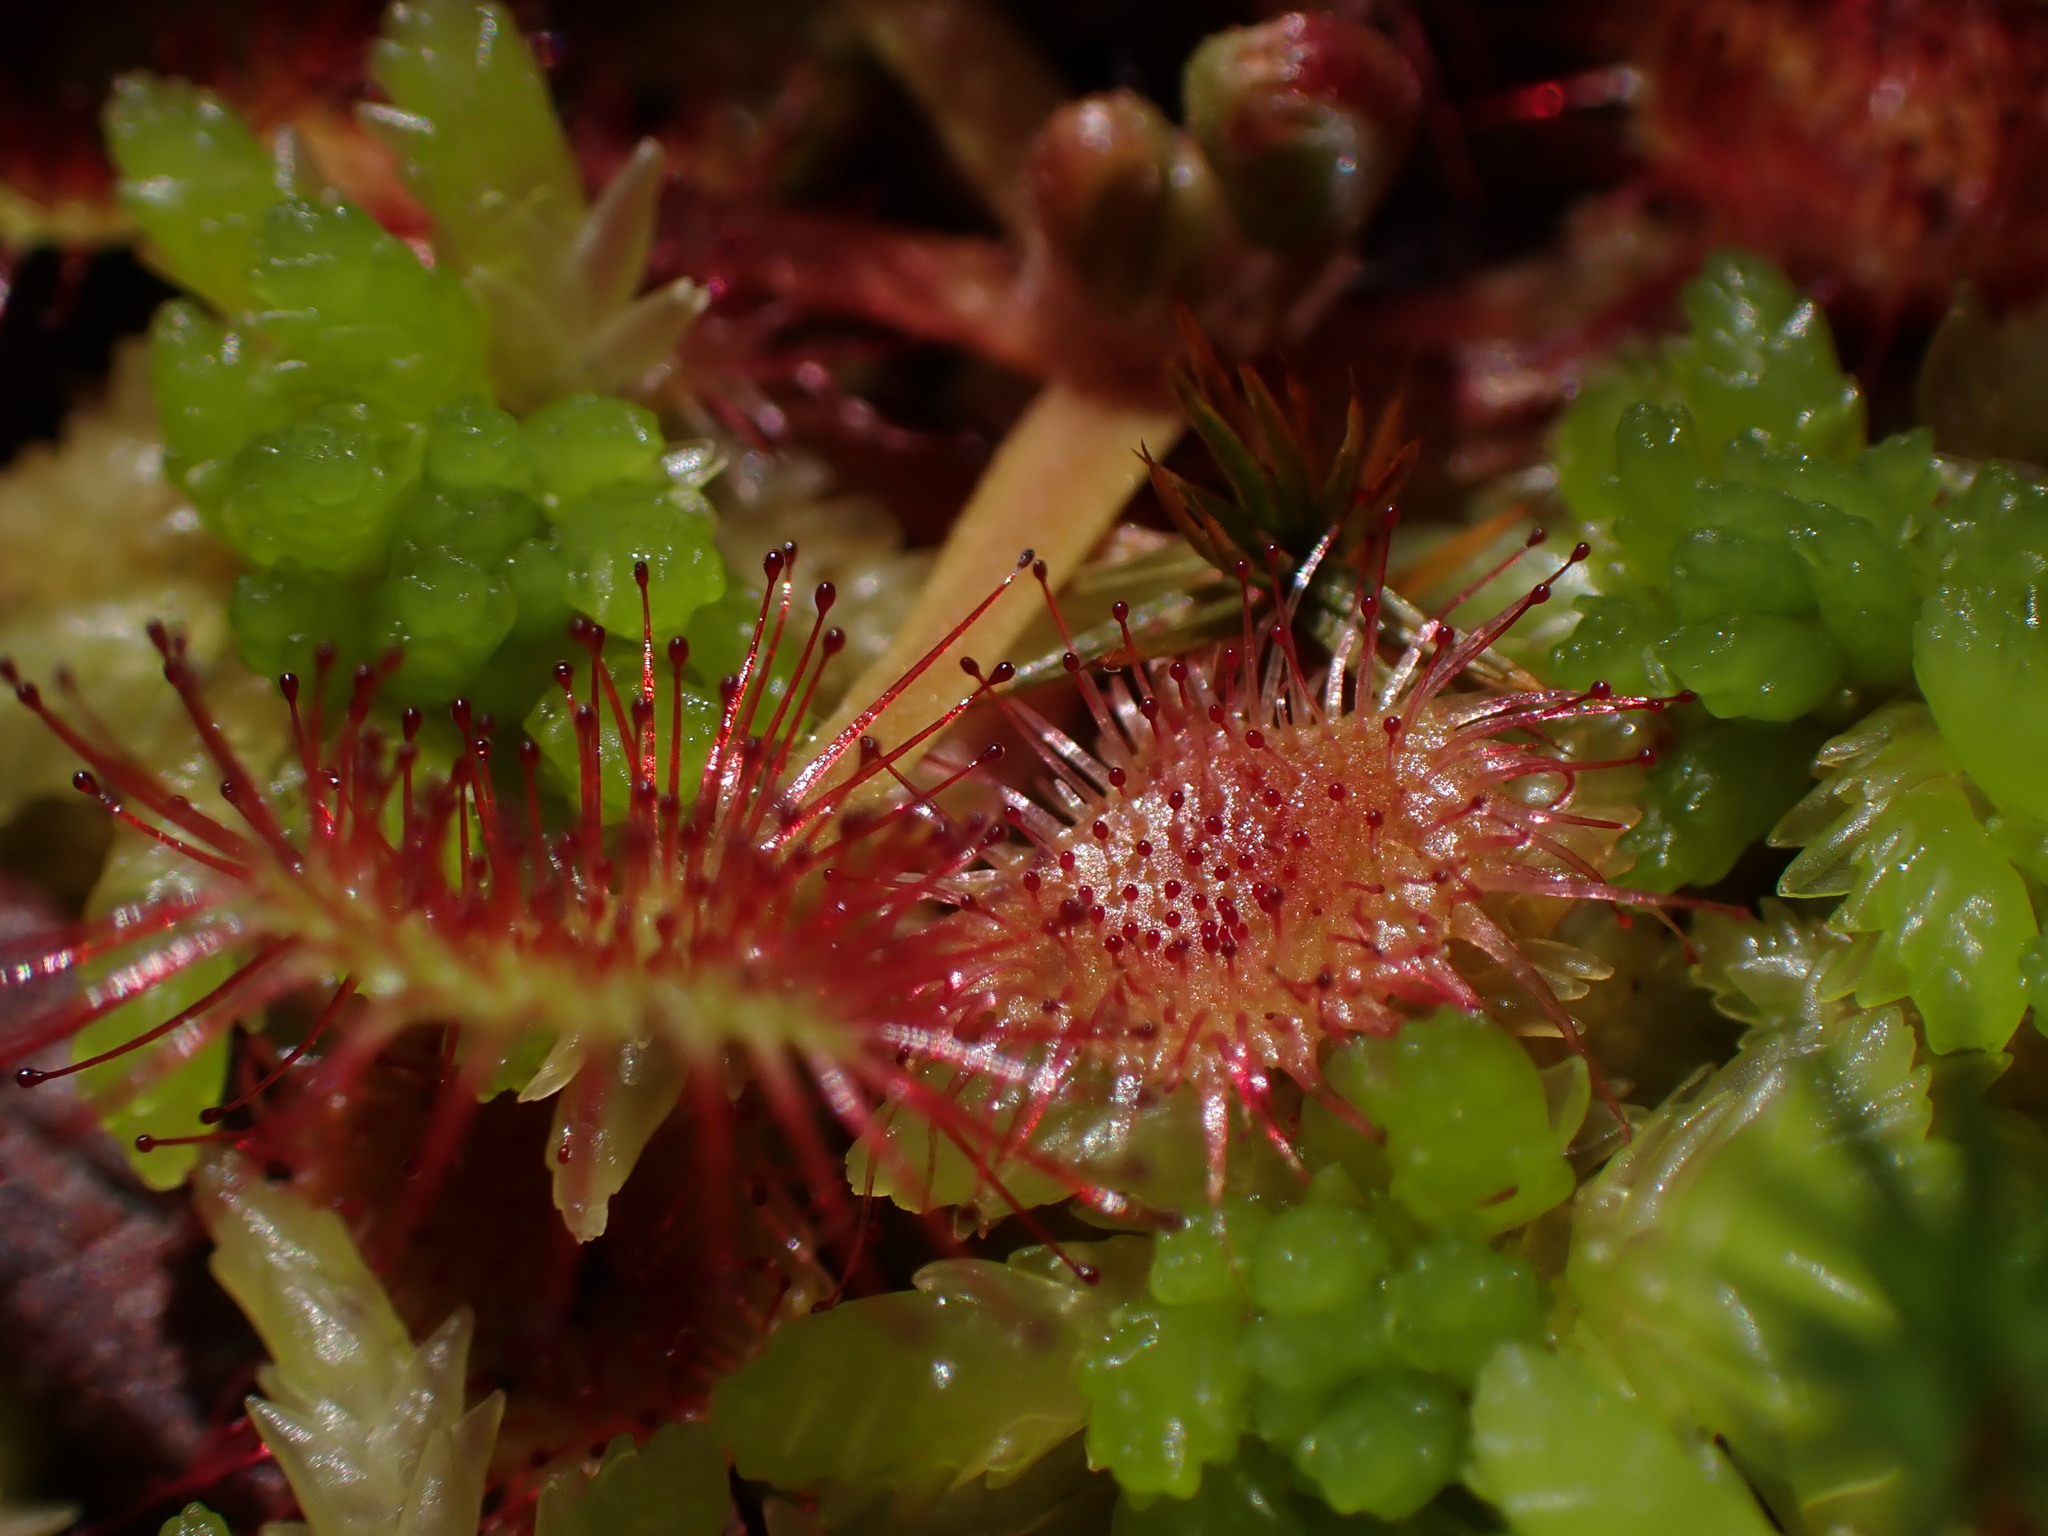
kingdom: Plantae
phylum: Tracheophyta
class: Magnoliopsida
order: Caryophyllales
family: Droseraceae
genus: Drosera
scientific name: Drosera rotundifolia
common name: Round-leaved sundew
